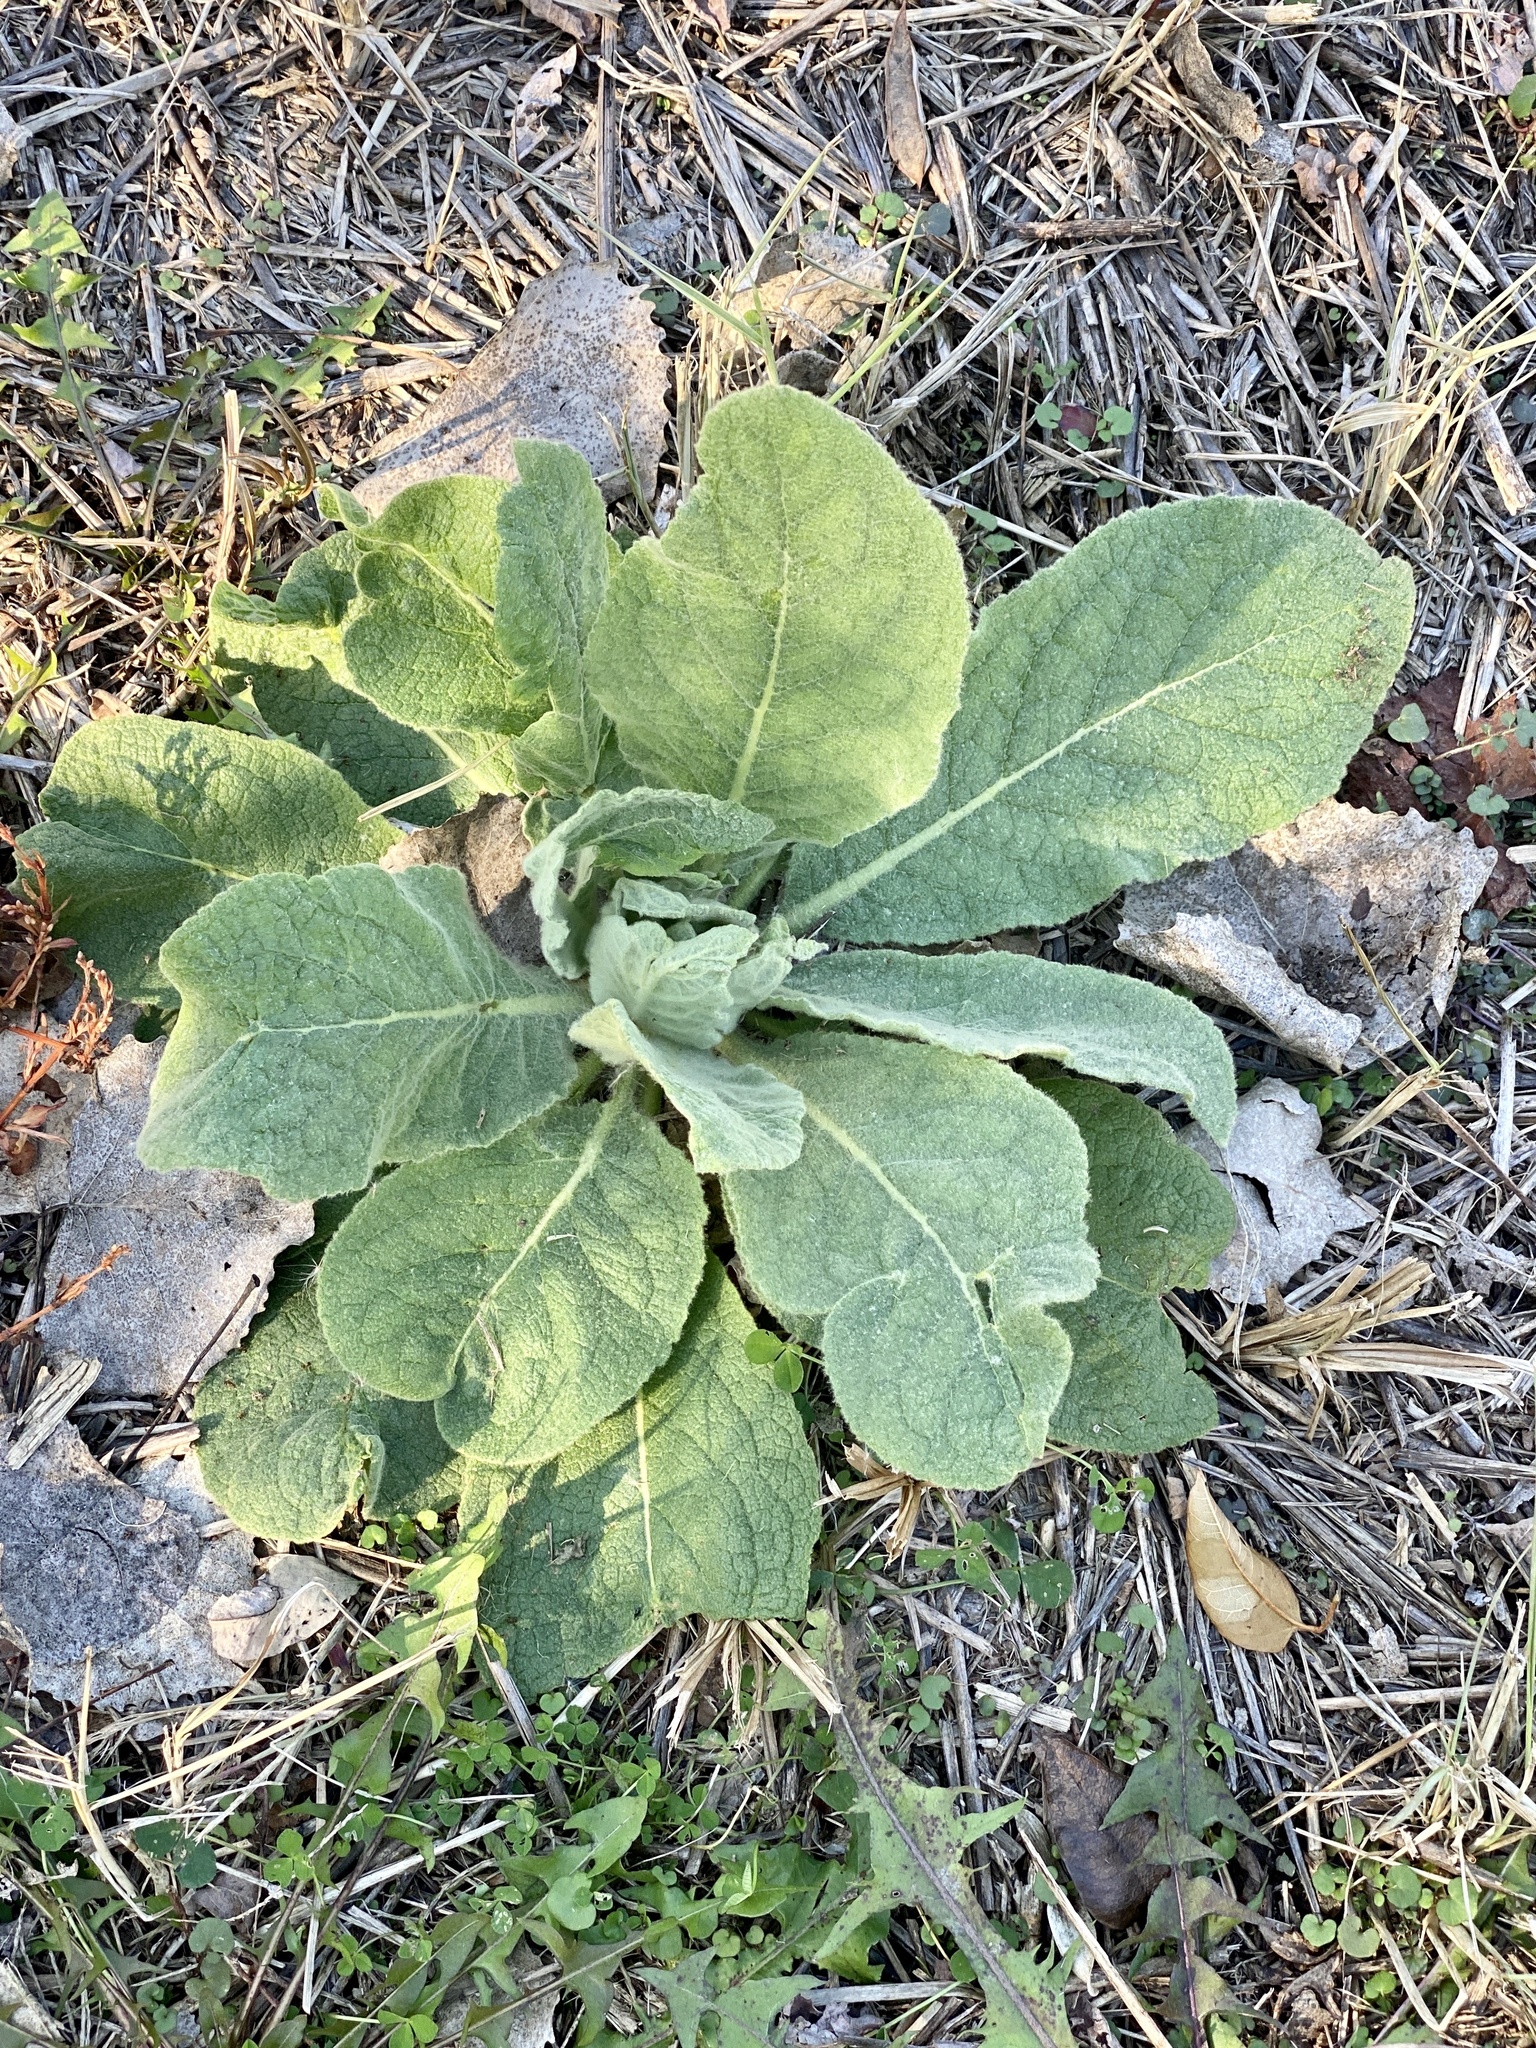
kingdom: Plantae
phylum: Tracheophyta
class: Magnoliopsida
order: Lamiales
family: Scrophulariaceae
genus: Verbascum
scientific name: Verbascum thapsus
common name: Common mullein
